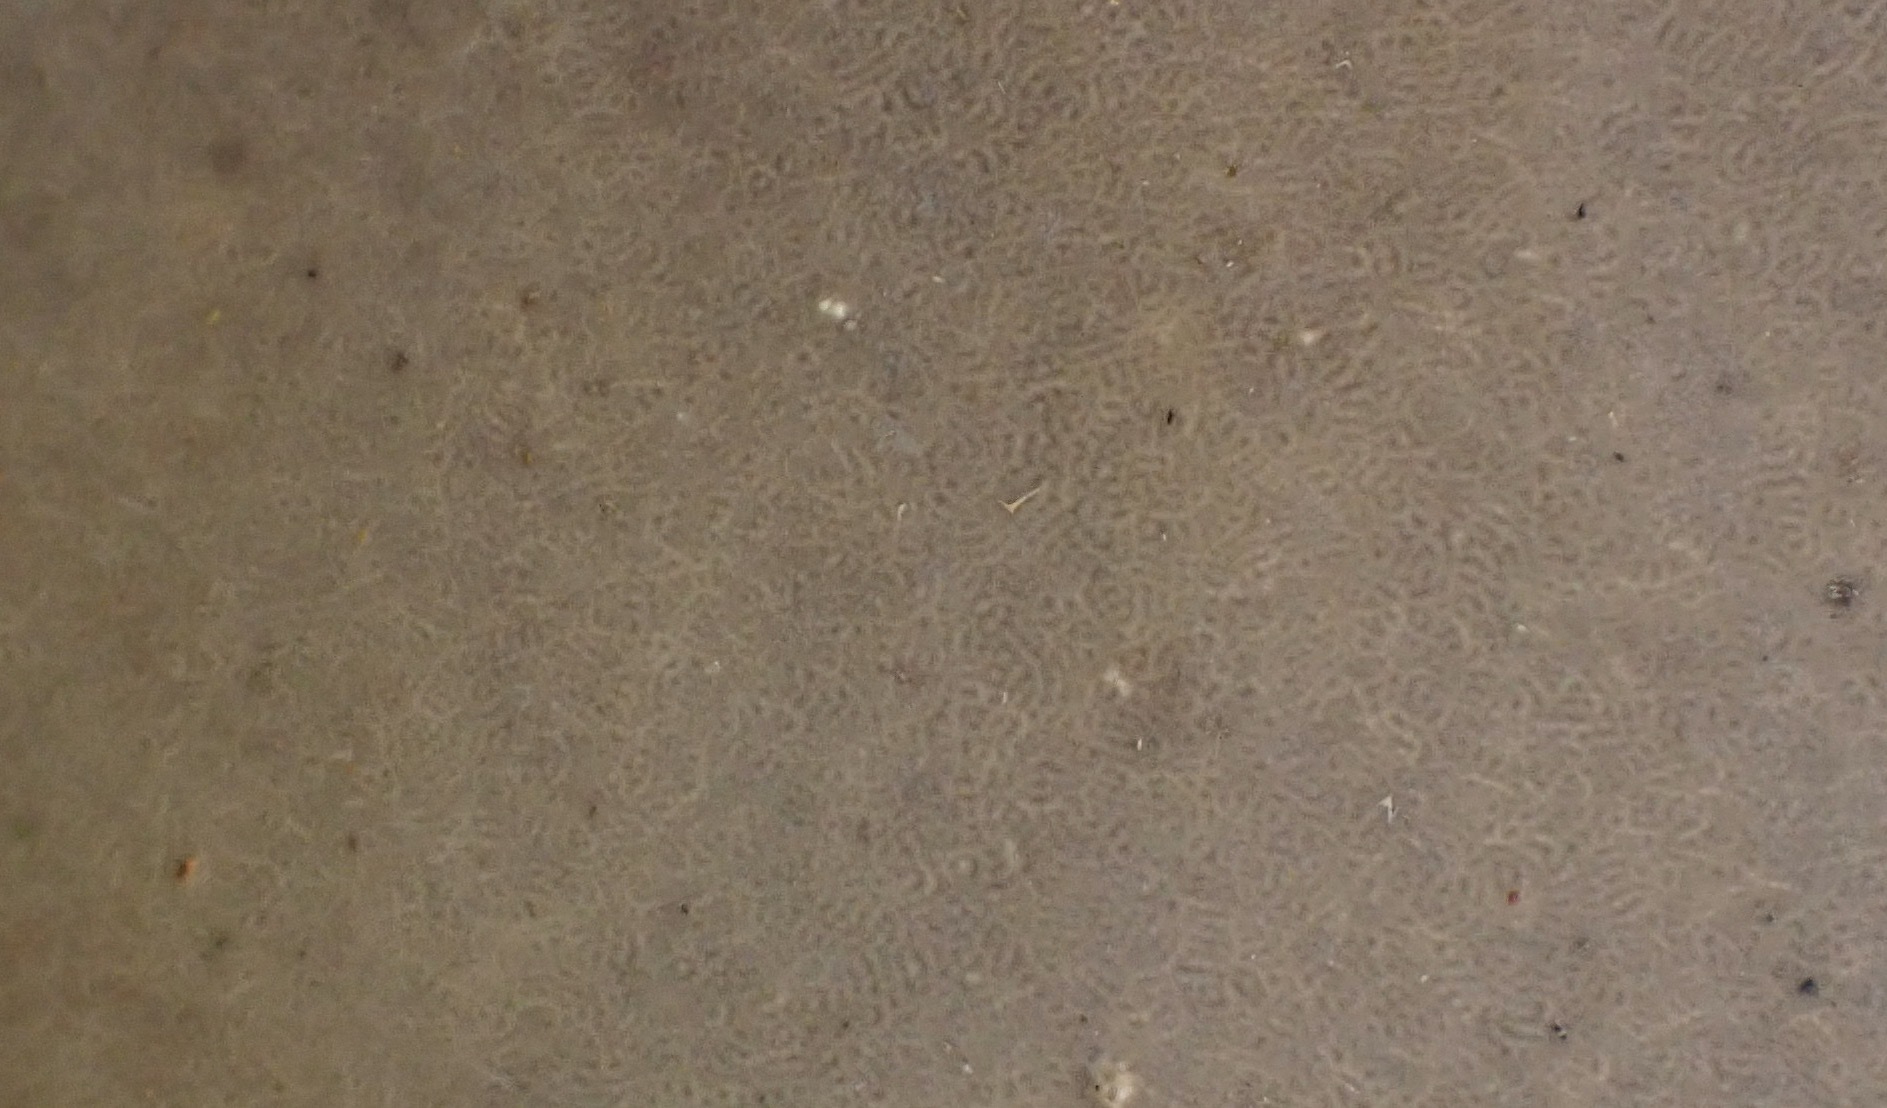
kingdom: Fungi
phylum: Basidiomycota
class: Agaricomycetes
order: Polyporales
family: Polyporaceae
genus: Fomes
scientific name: Fomes fomentarius
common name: Hoof fungus
